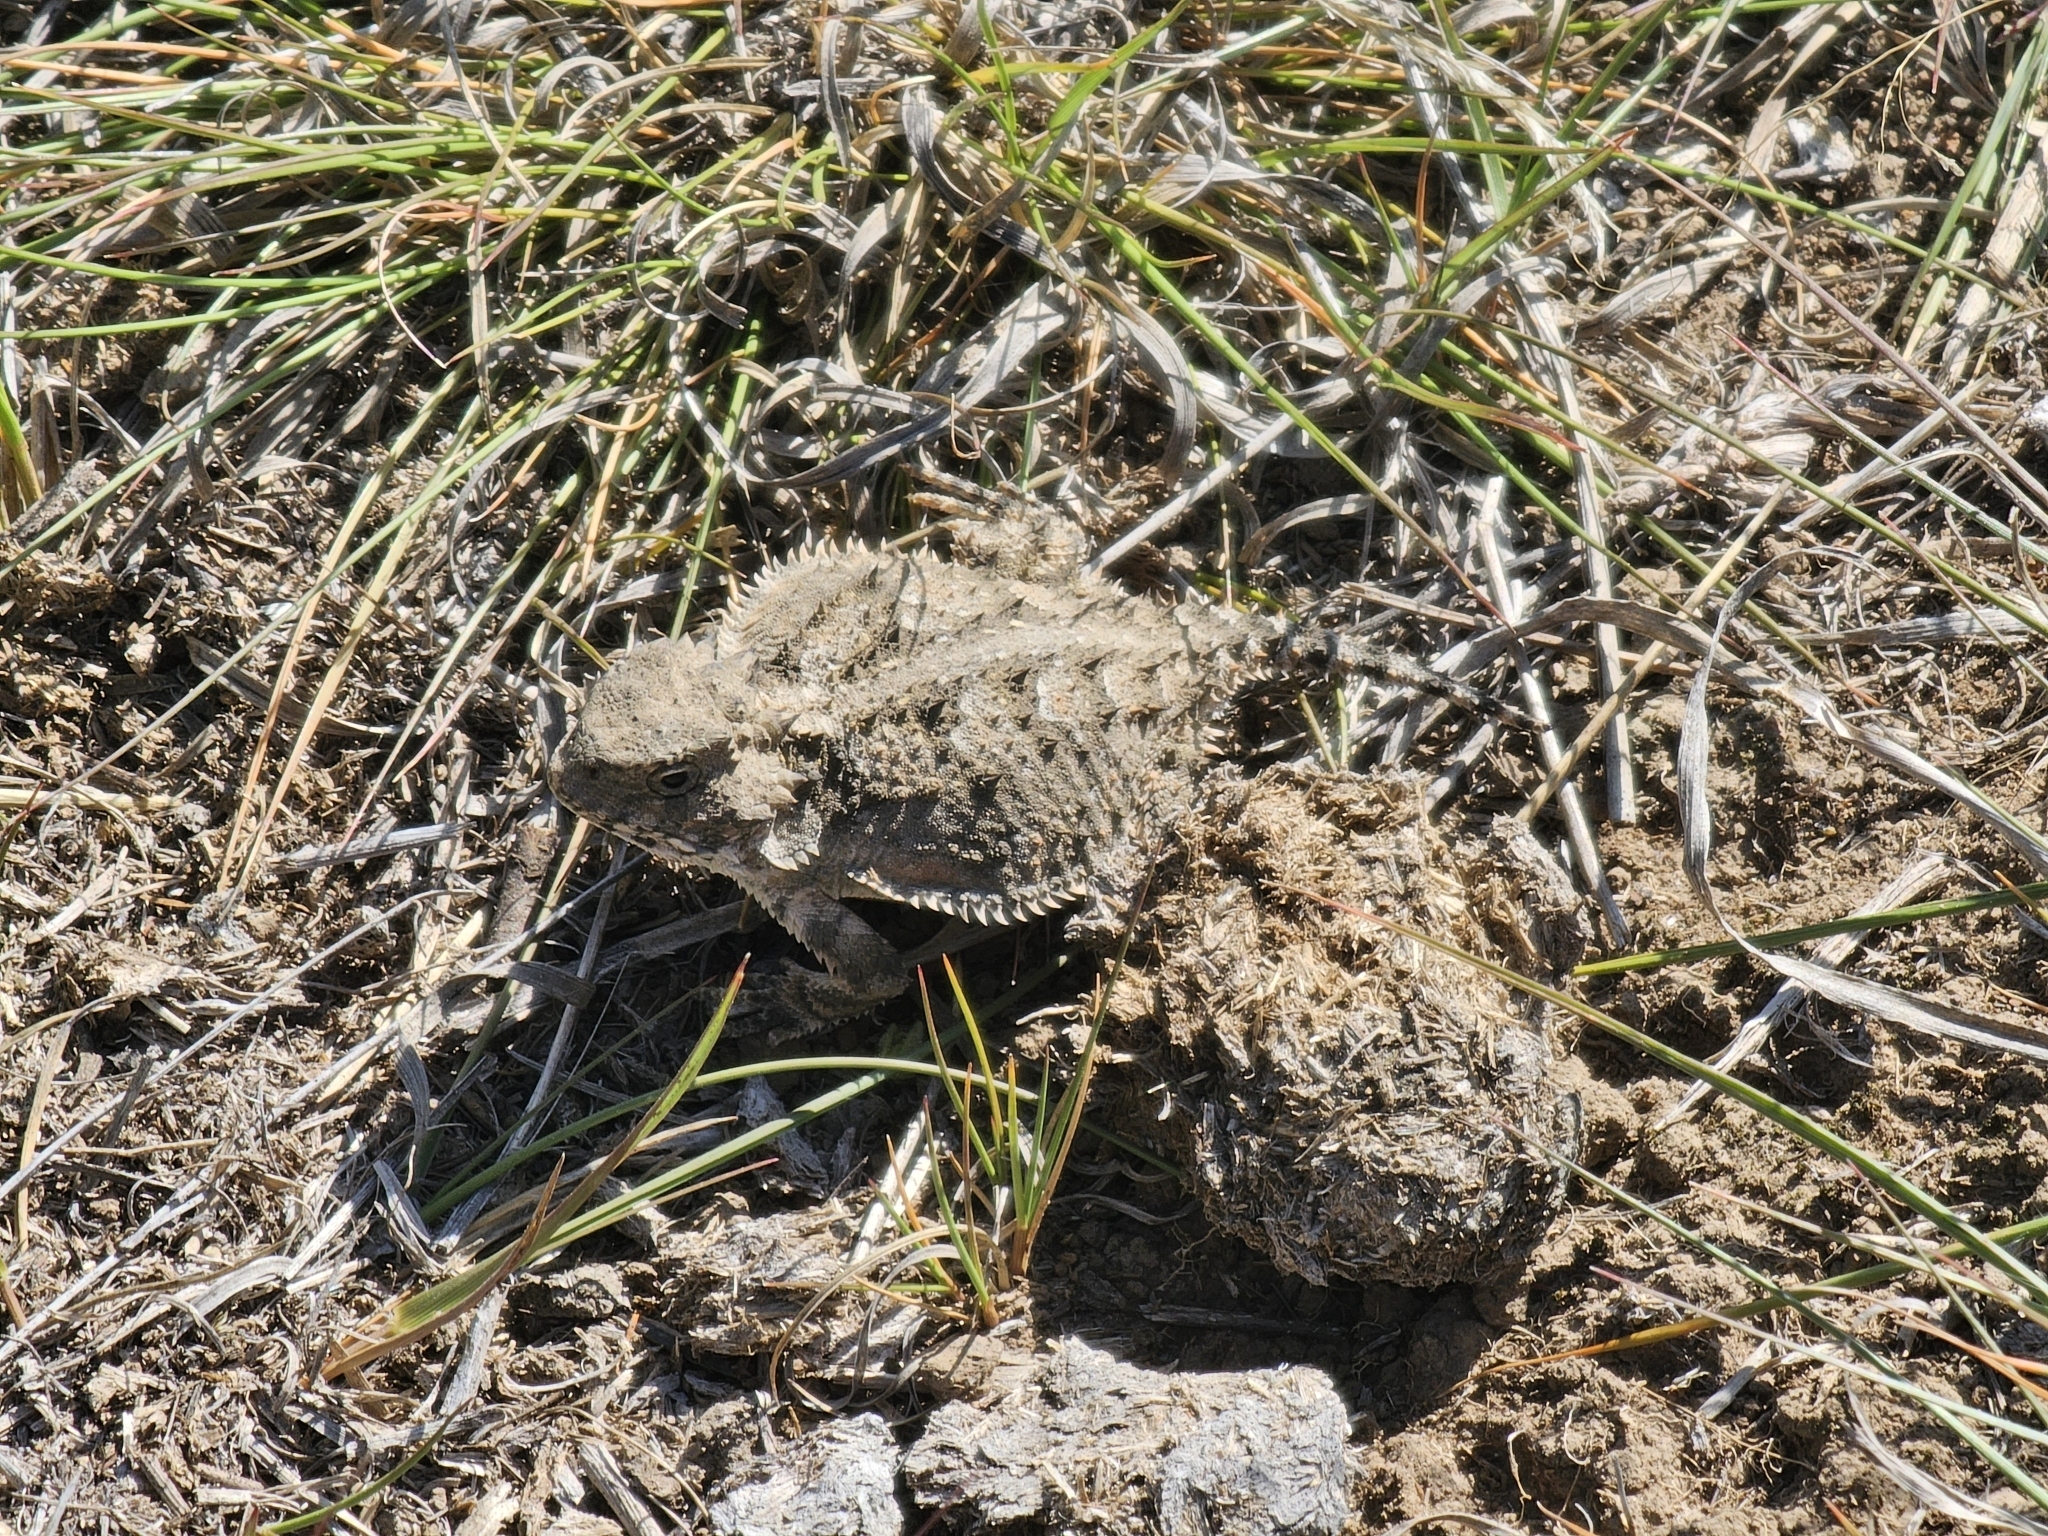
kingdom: Animalia
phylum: Chordata
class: Squamata
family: Phrynosomatidae
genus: Phrynosoma
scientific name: Phrynosoma orbiculare
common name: Mountain horned lizard
